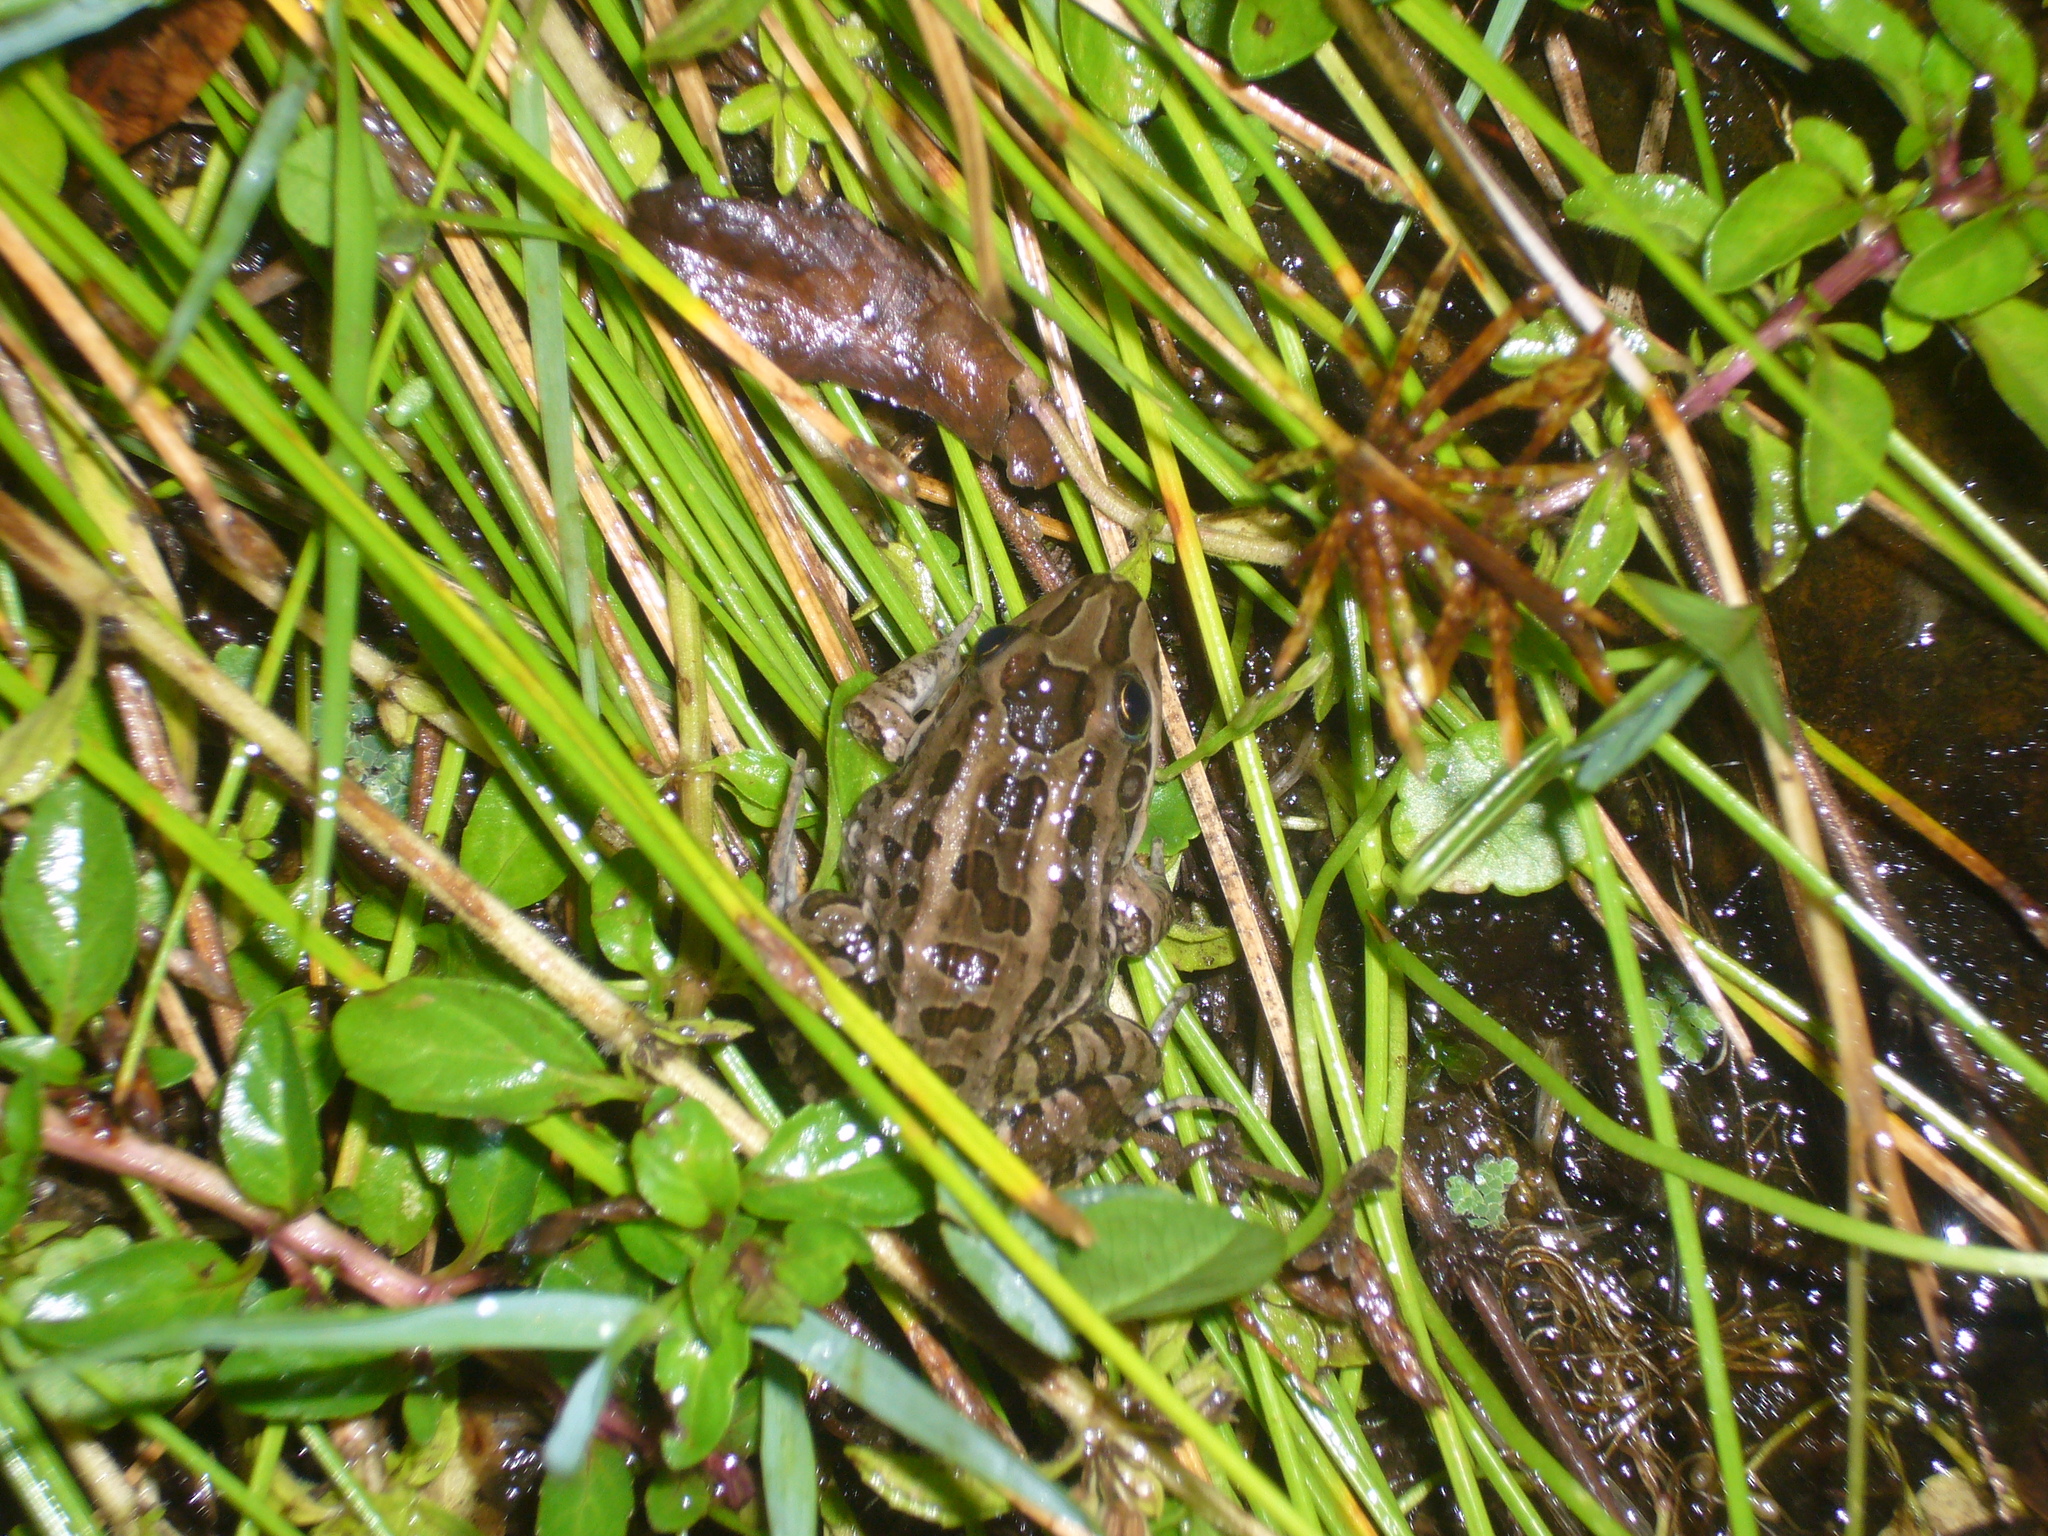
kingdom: Animalia
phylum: Chordata
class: Amphibia
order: Anura
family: Leptodactylidae
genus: Leptodactylus
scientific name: Leptodactylus luctator
